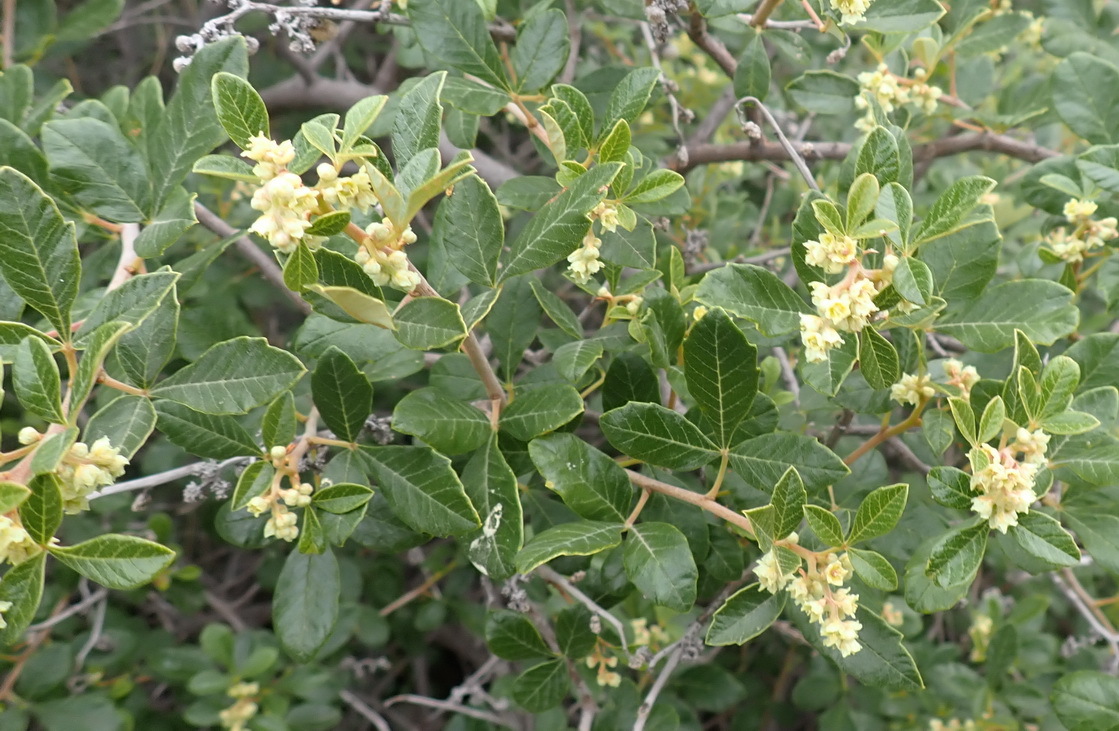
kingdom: Plantae
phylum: Tracheophyta
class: Magnoliopsida
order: Sapindales
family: Anacardiaceae
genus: Searsia
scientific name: Searsia tomentosa
